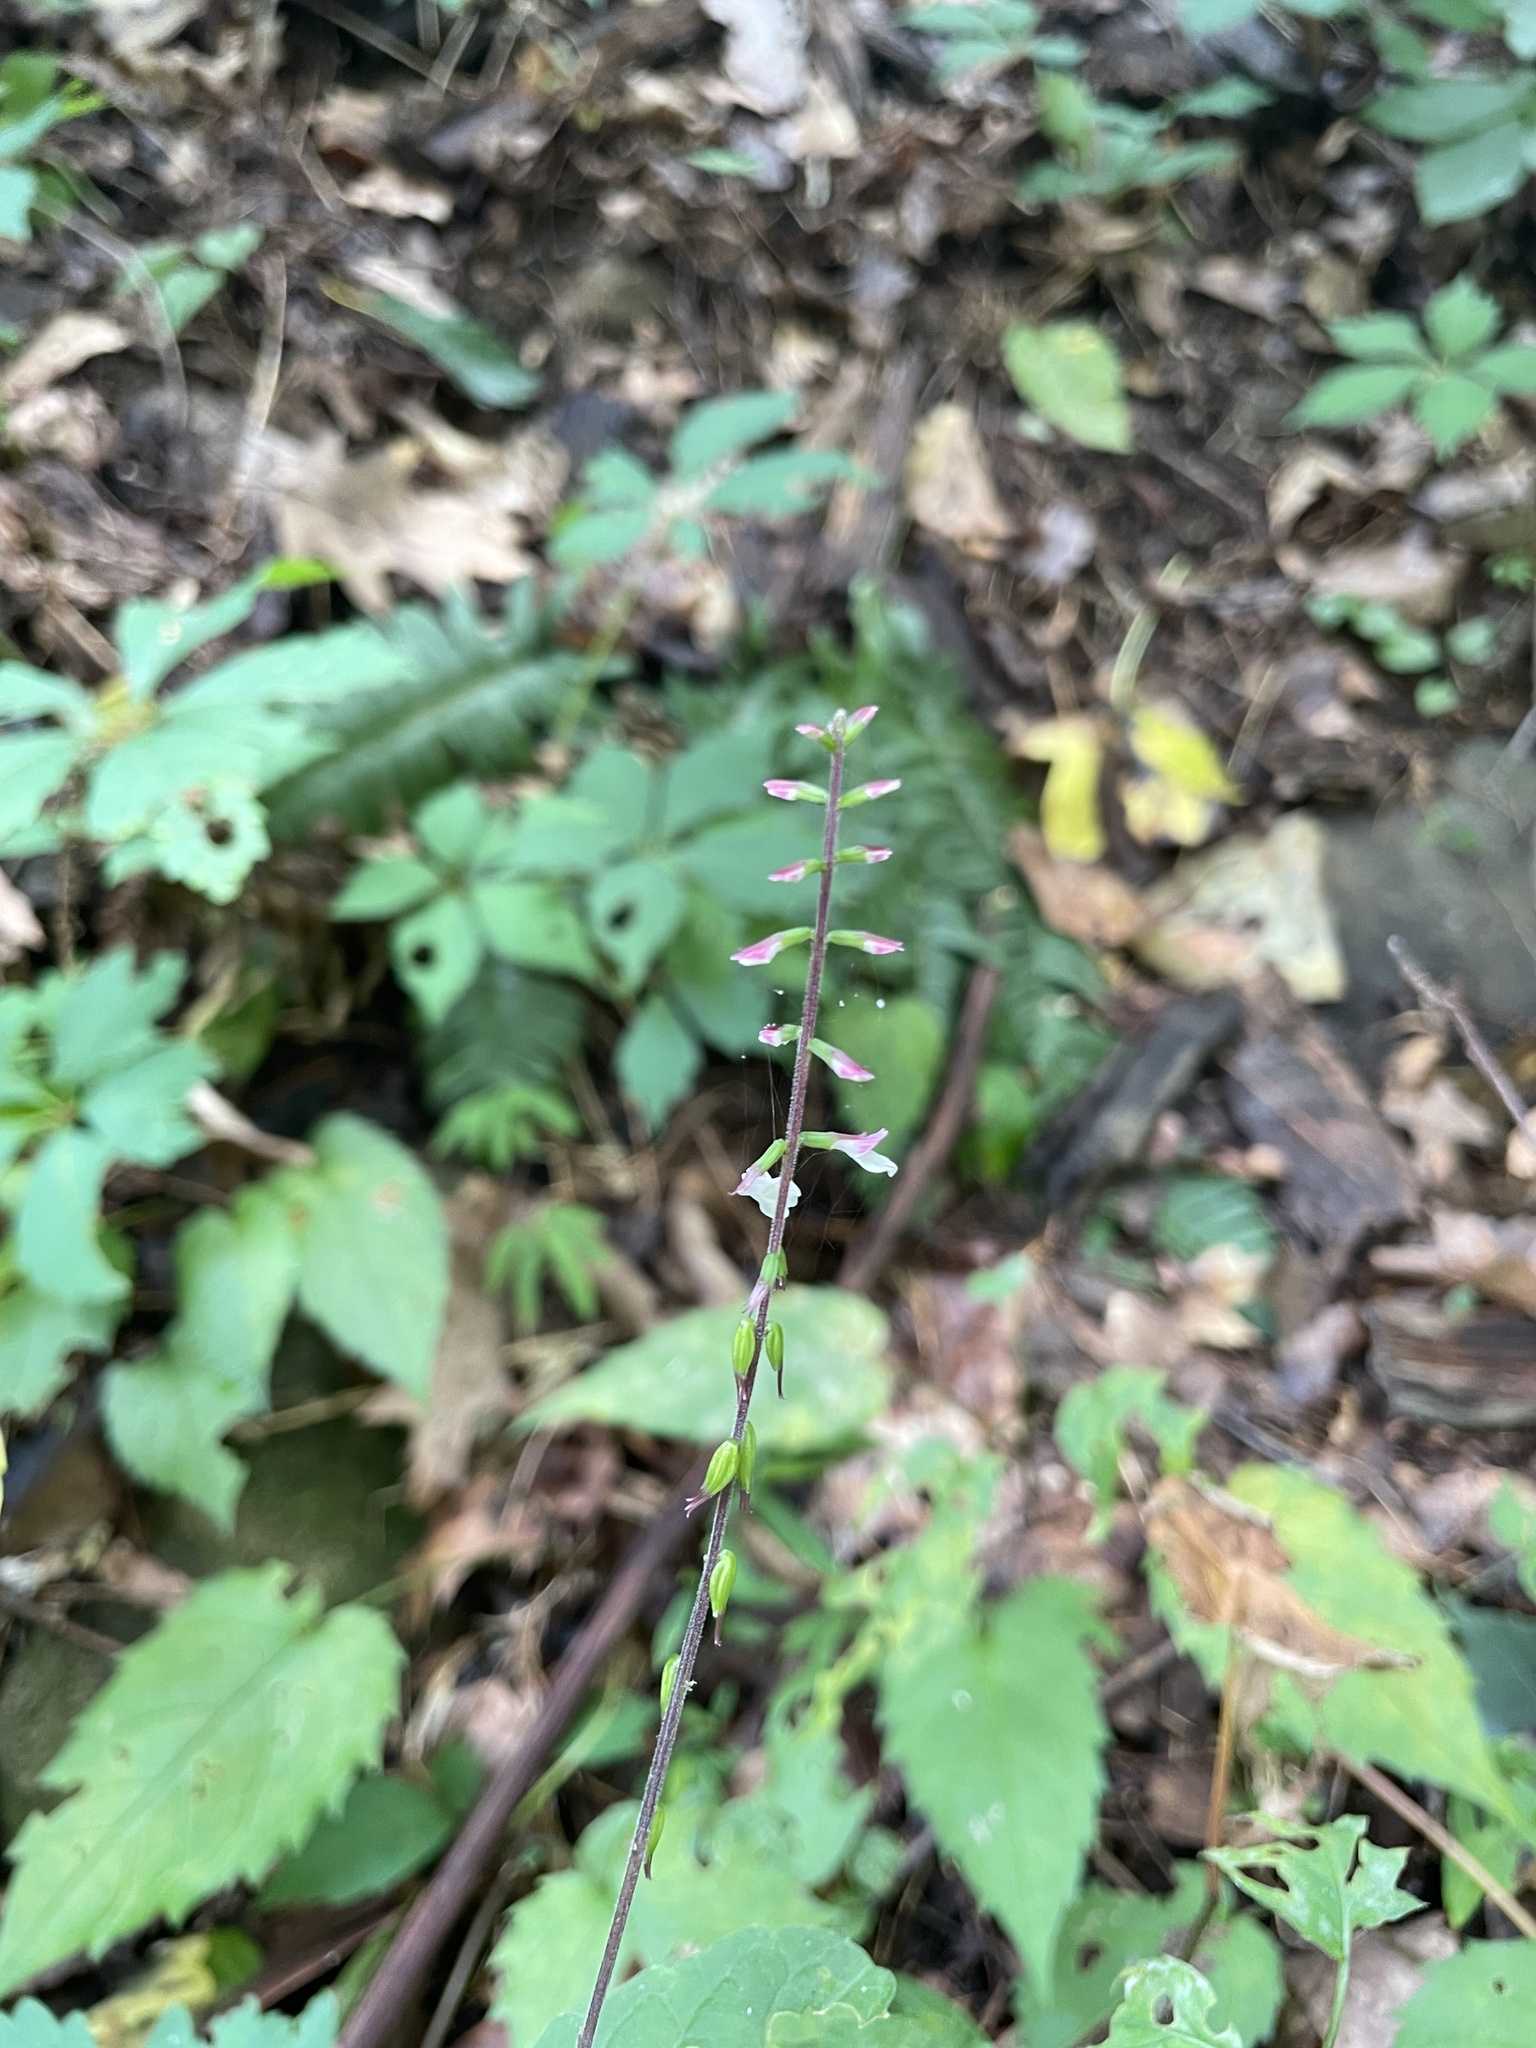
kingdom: Plantae
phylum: Tracheophyta
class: Magnoliopsida
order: Lamiales
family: Phrymaceae
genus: Phryma
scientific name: Phryma leptostachya
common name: American lopseed
